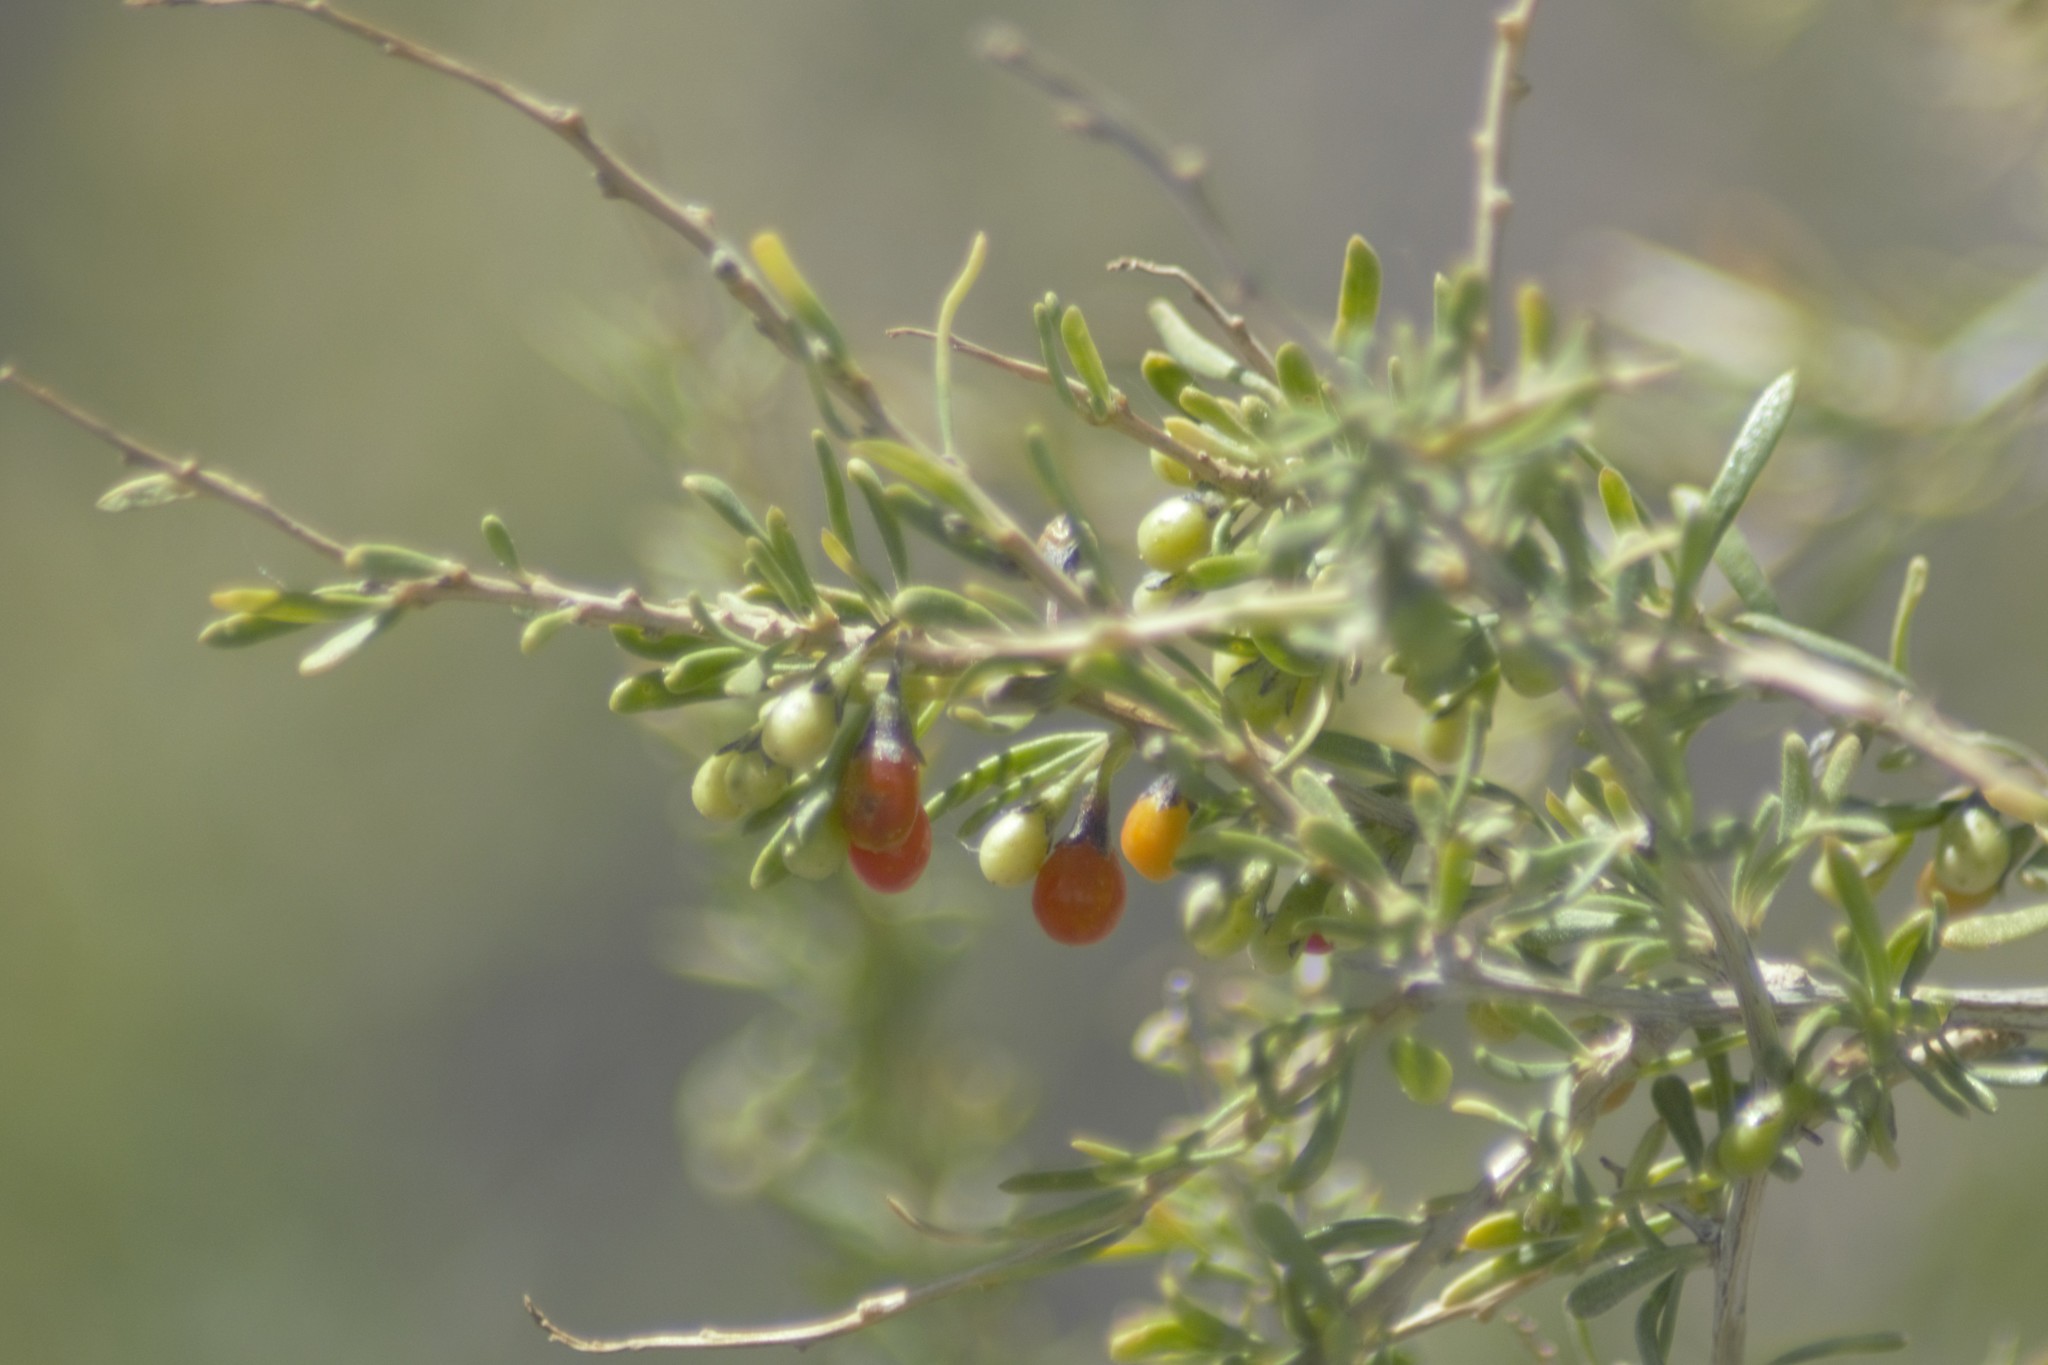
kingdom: Plantae
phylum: Tracheophyta
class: Magnoliopsida
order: Solanales
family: Solanaceae
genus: Lycium
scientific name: Lycium chilense
